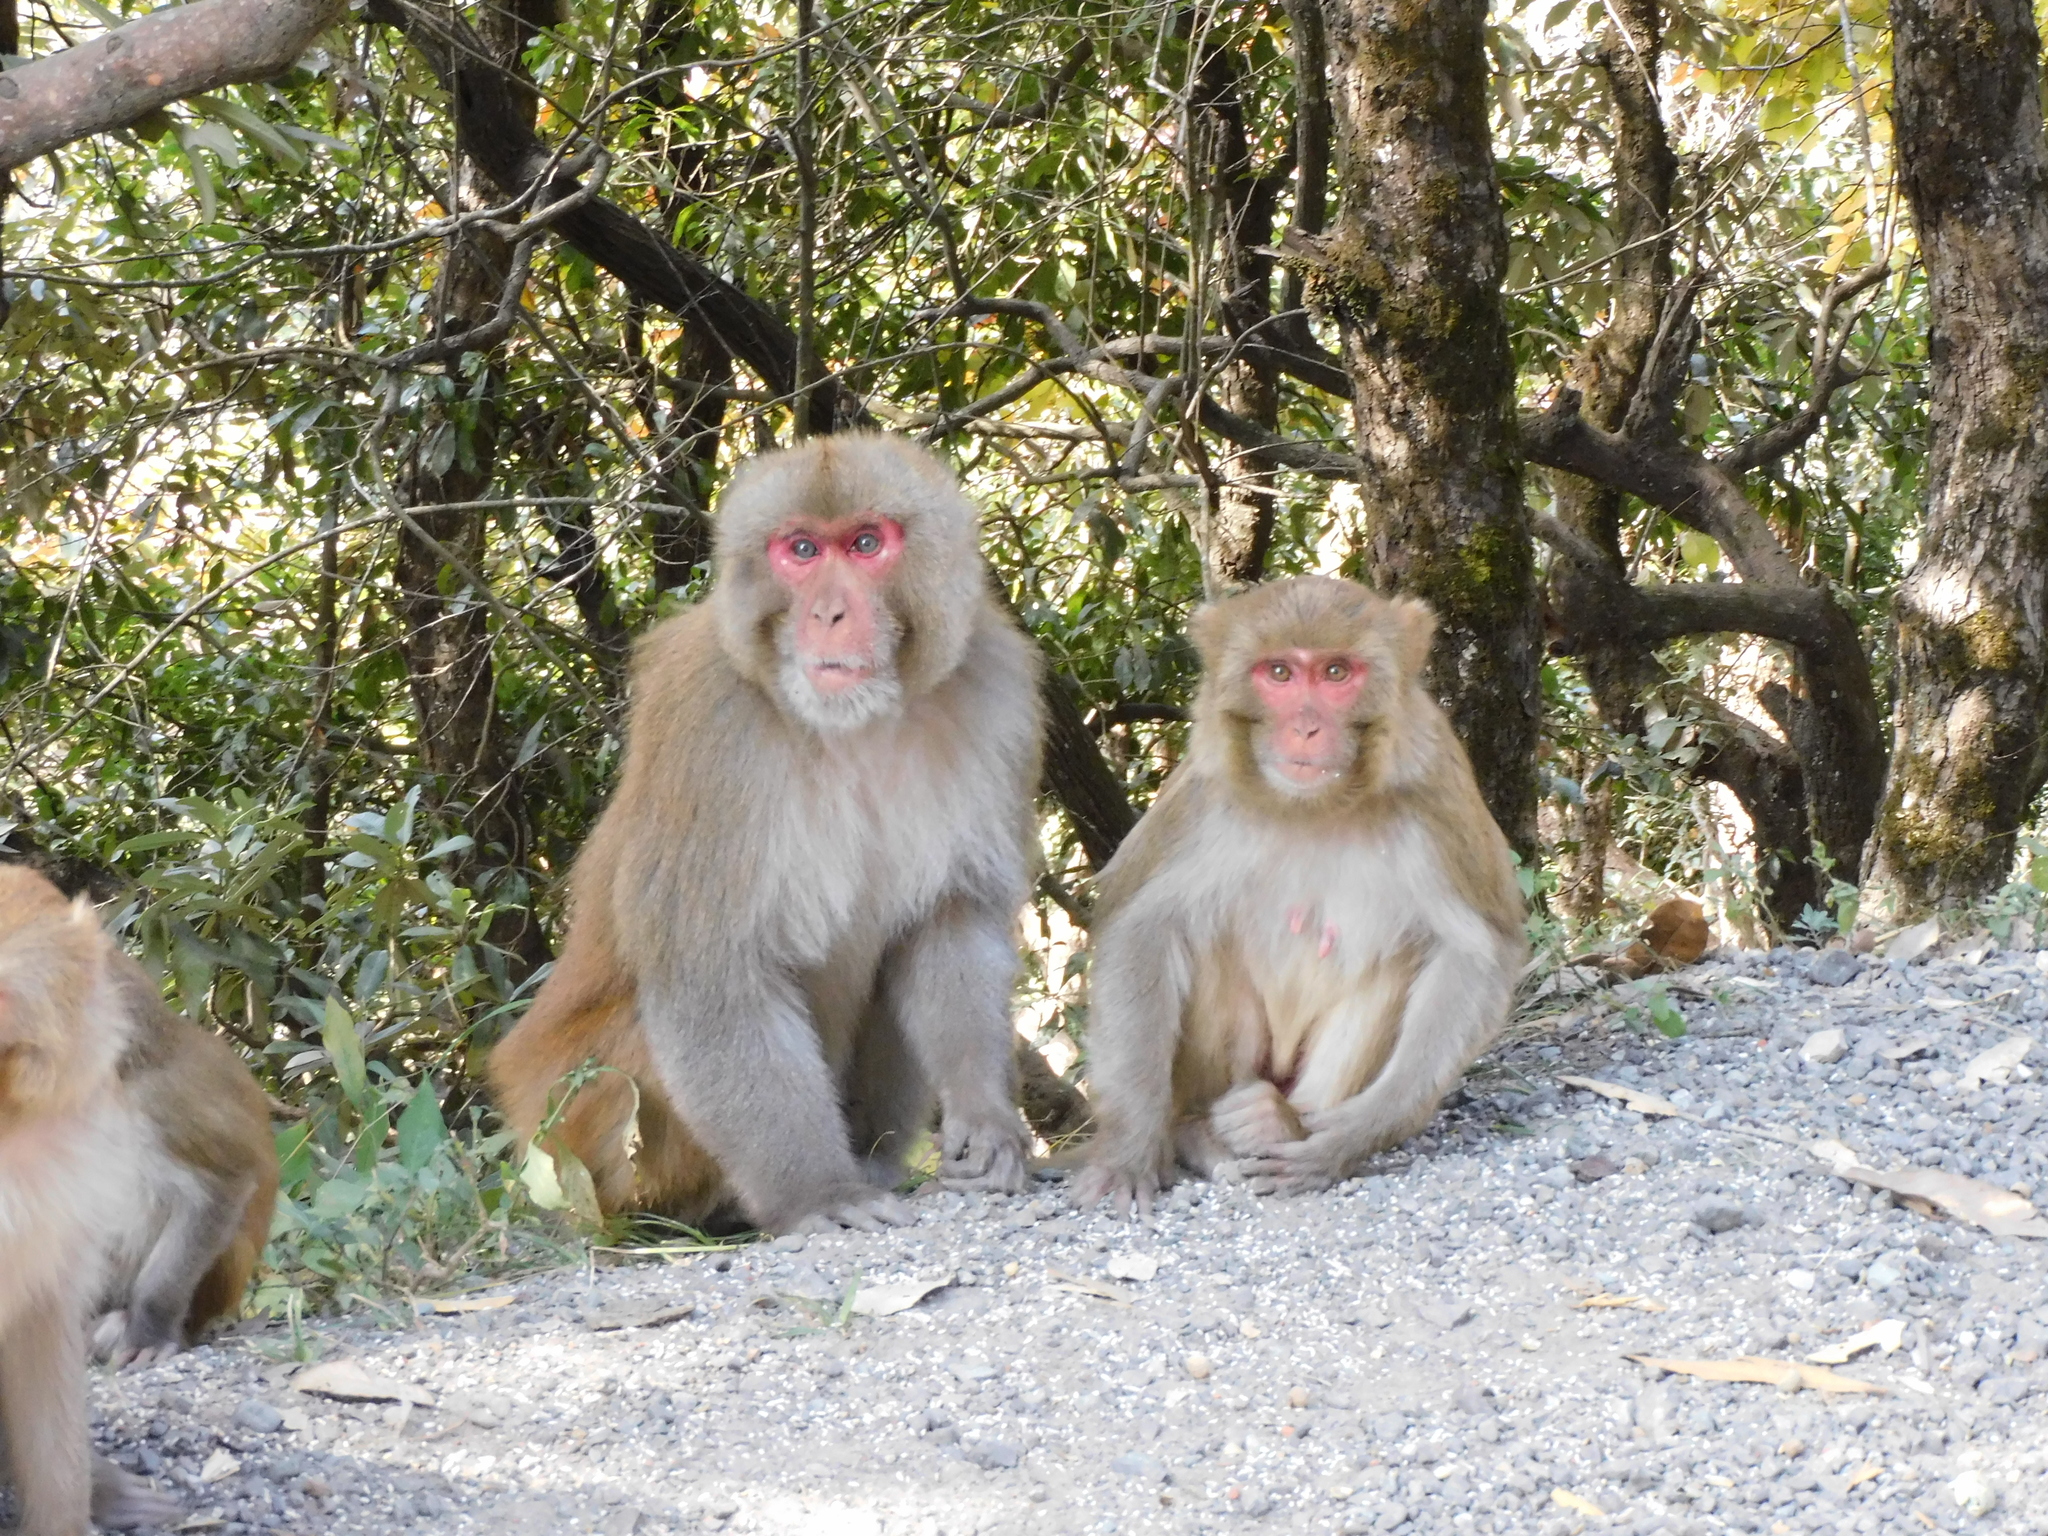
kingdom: Animalia
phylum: Chordata
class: Mammalia
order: Primates
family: Cercopithecidae
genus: Macaca
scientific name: Macaca mulatta
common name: Rhesus monkey
